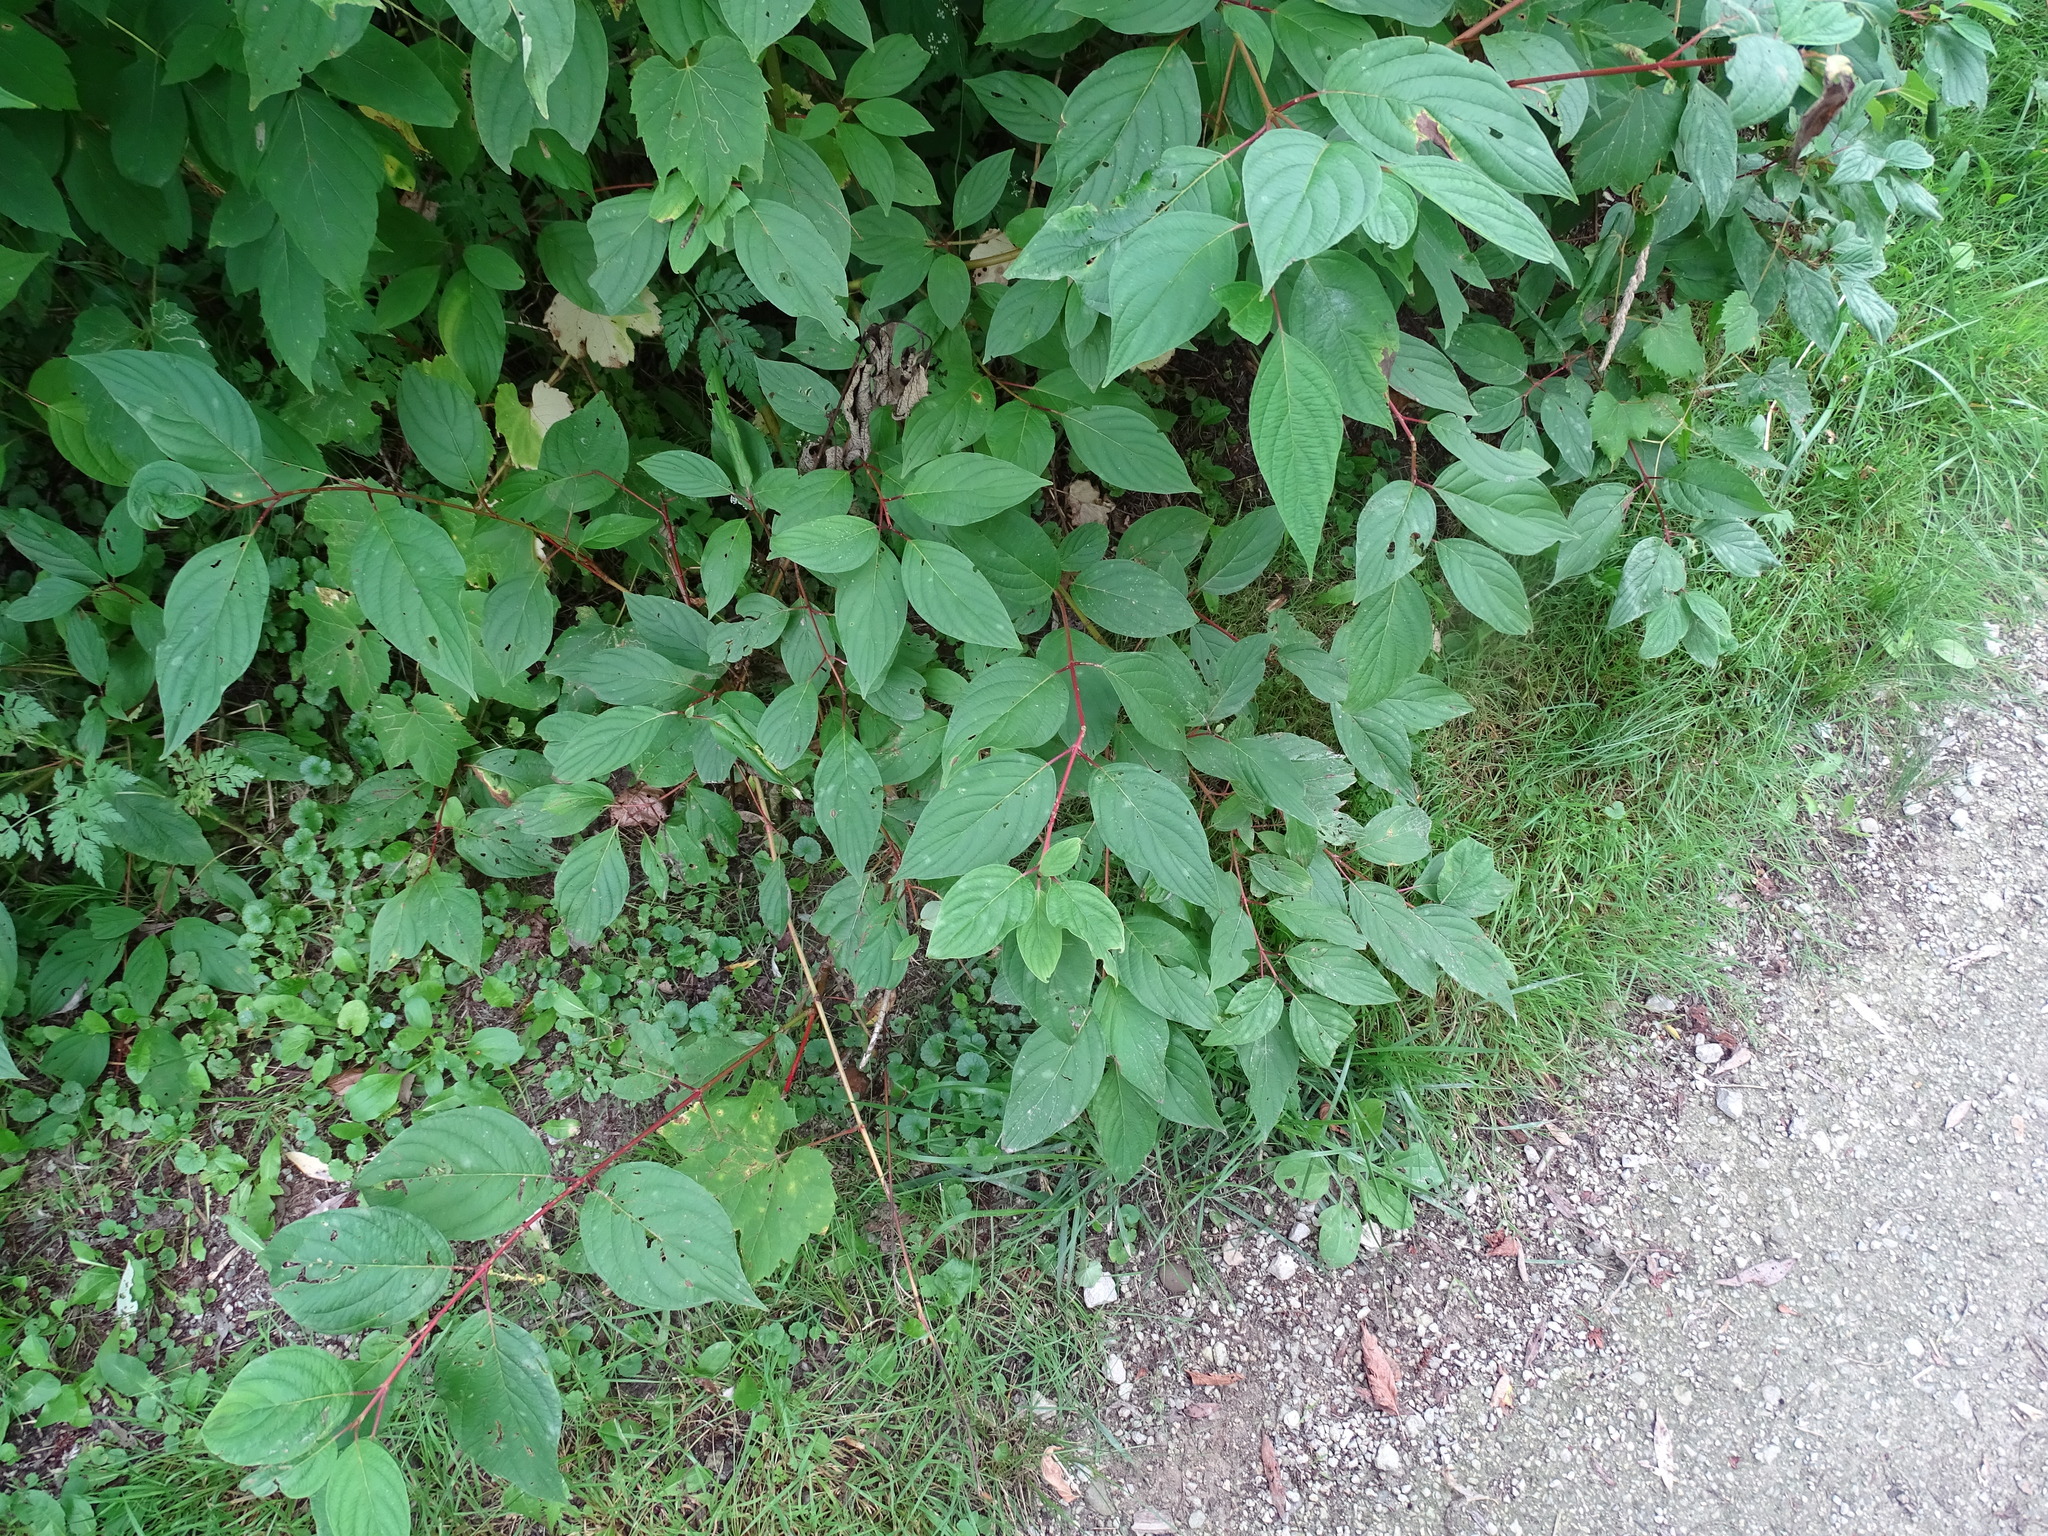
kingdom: Plantae
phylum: Tracheophyta
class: Magnoliopsida
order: Cornales
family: Cornaceae
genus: Cornus
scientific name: Cornus sericea
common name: Red-osier dogwood
